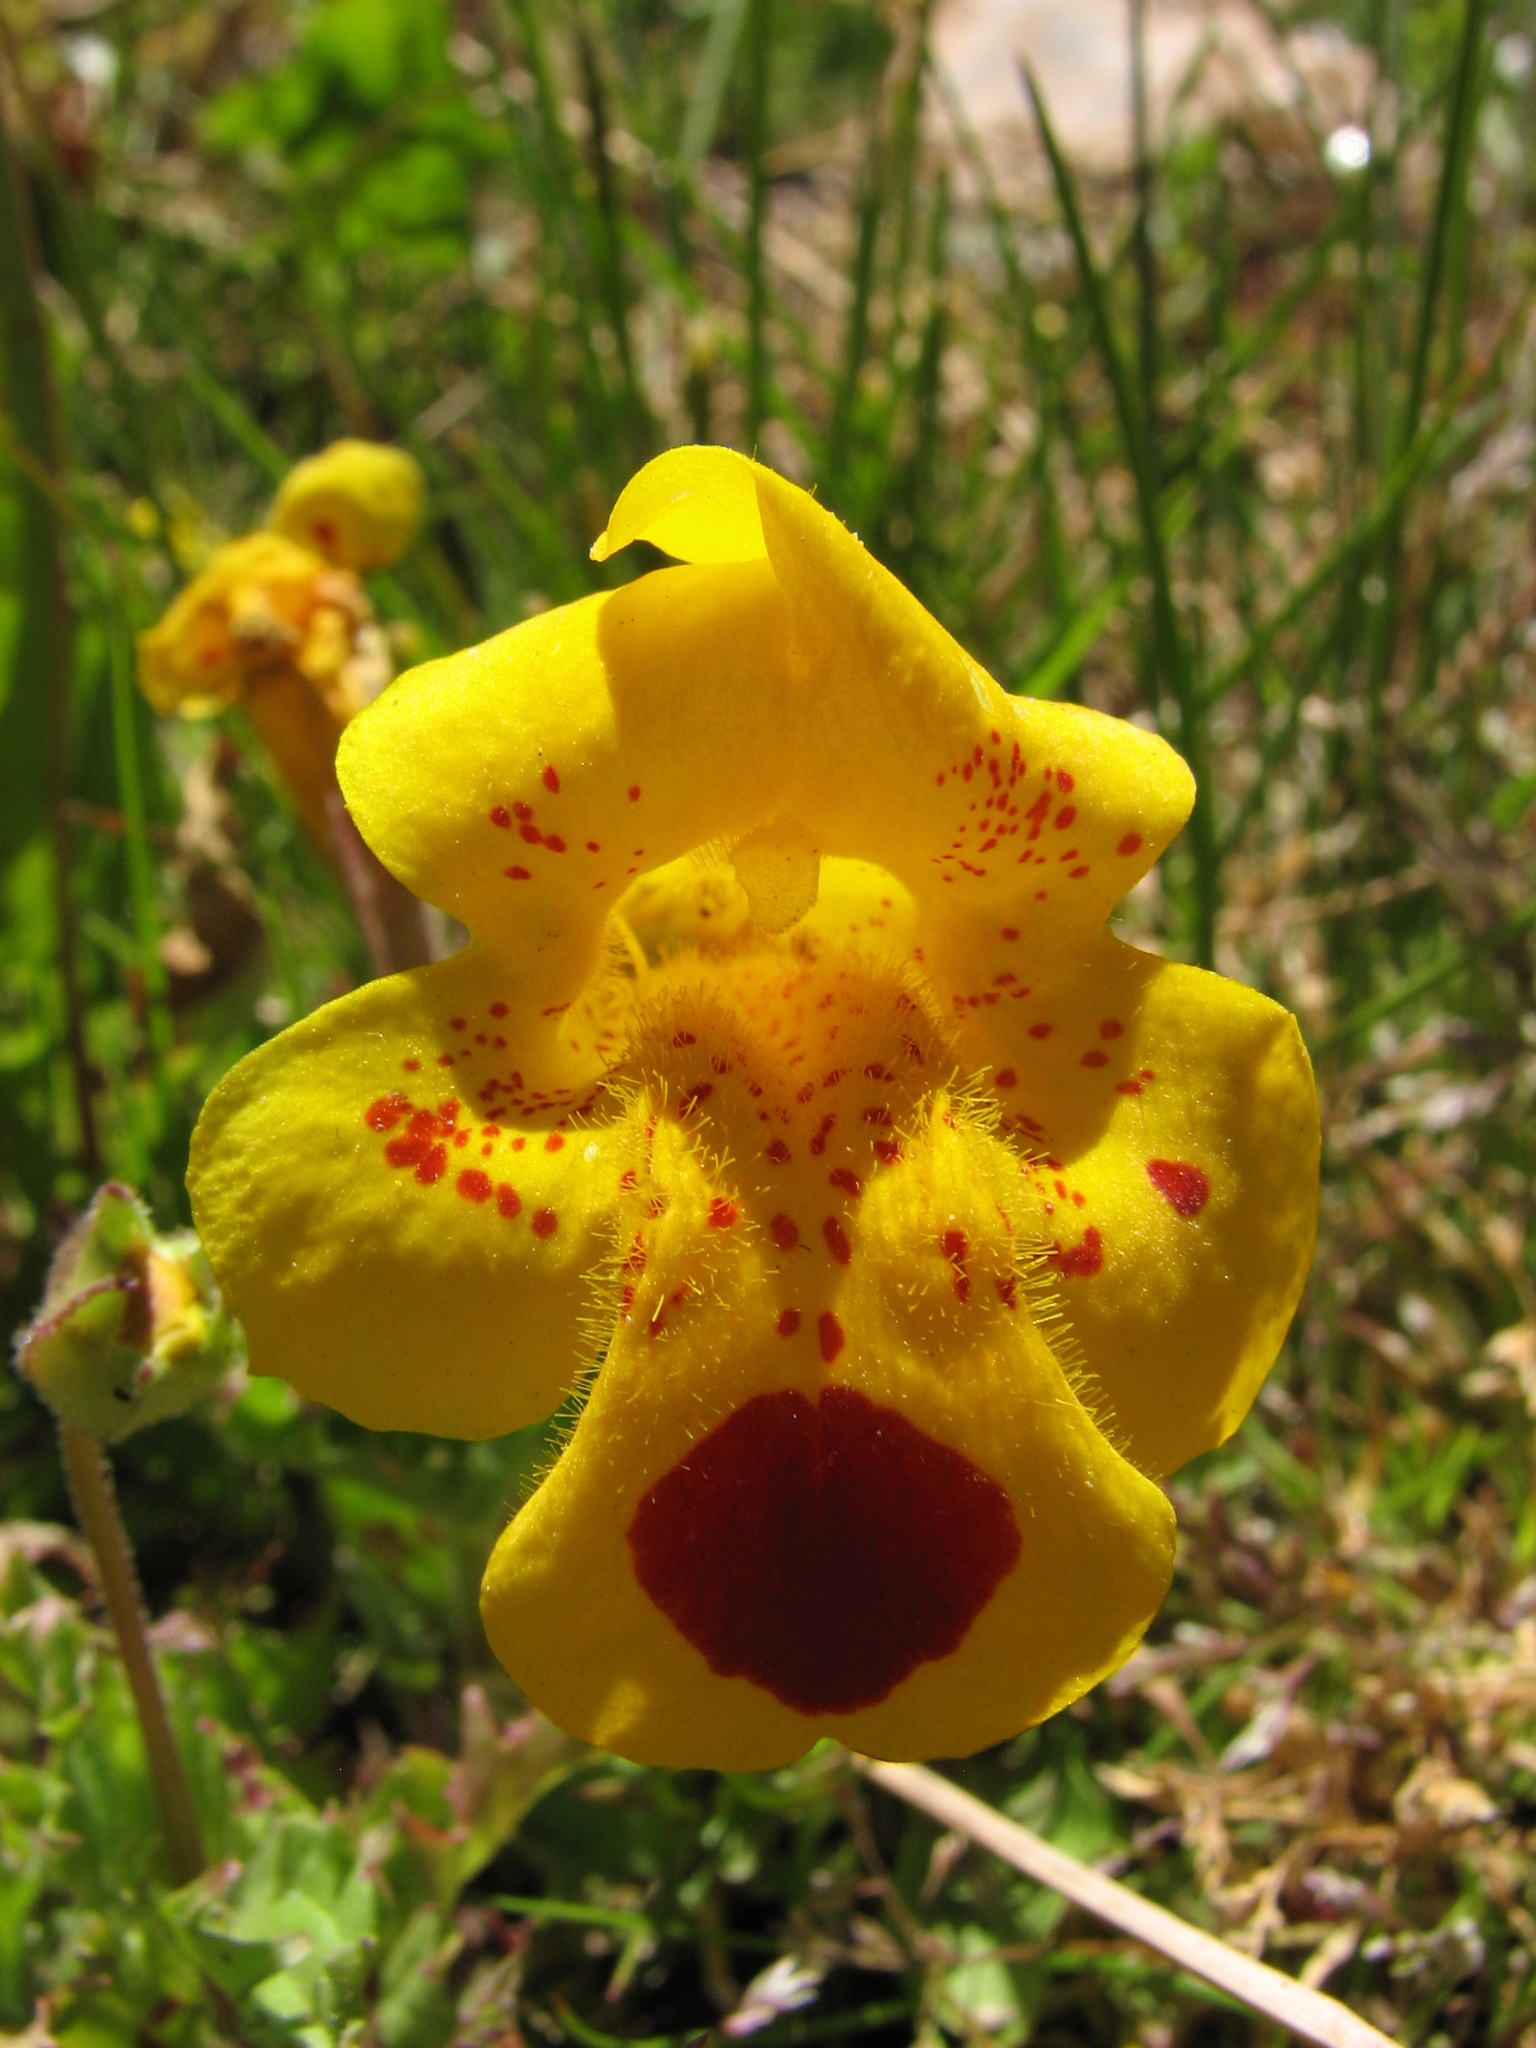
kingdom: Plantae
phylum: Tracheophyta
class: Magnoliopsida
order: Lamiales
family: Phrymaceae
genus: Erythranthe
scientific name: Erythranthe lutea
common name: Yellow monkey-flower
